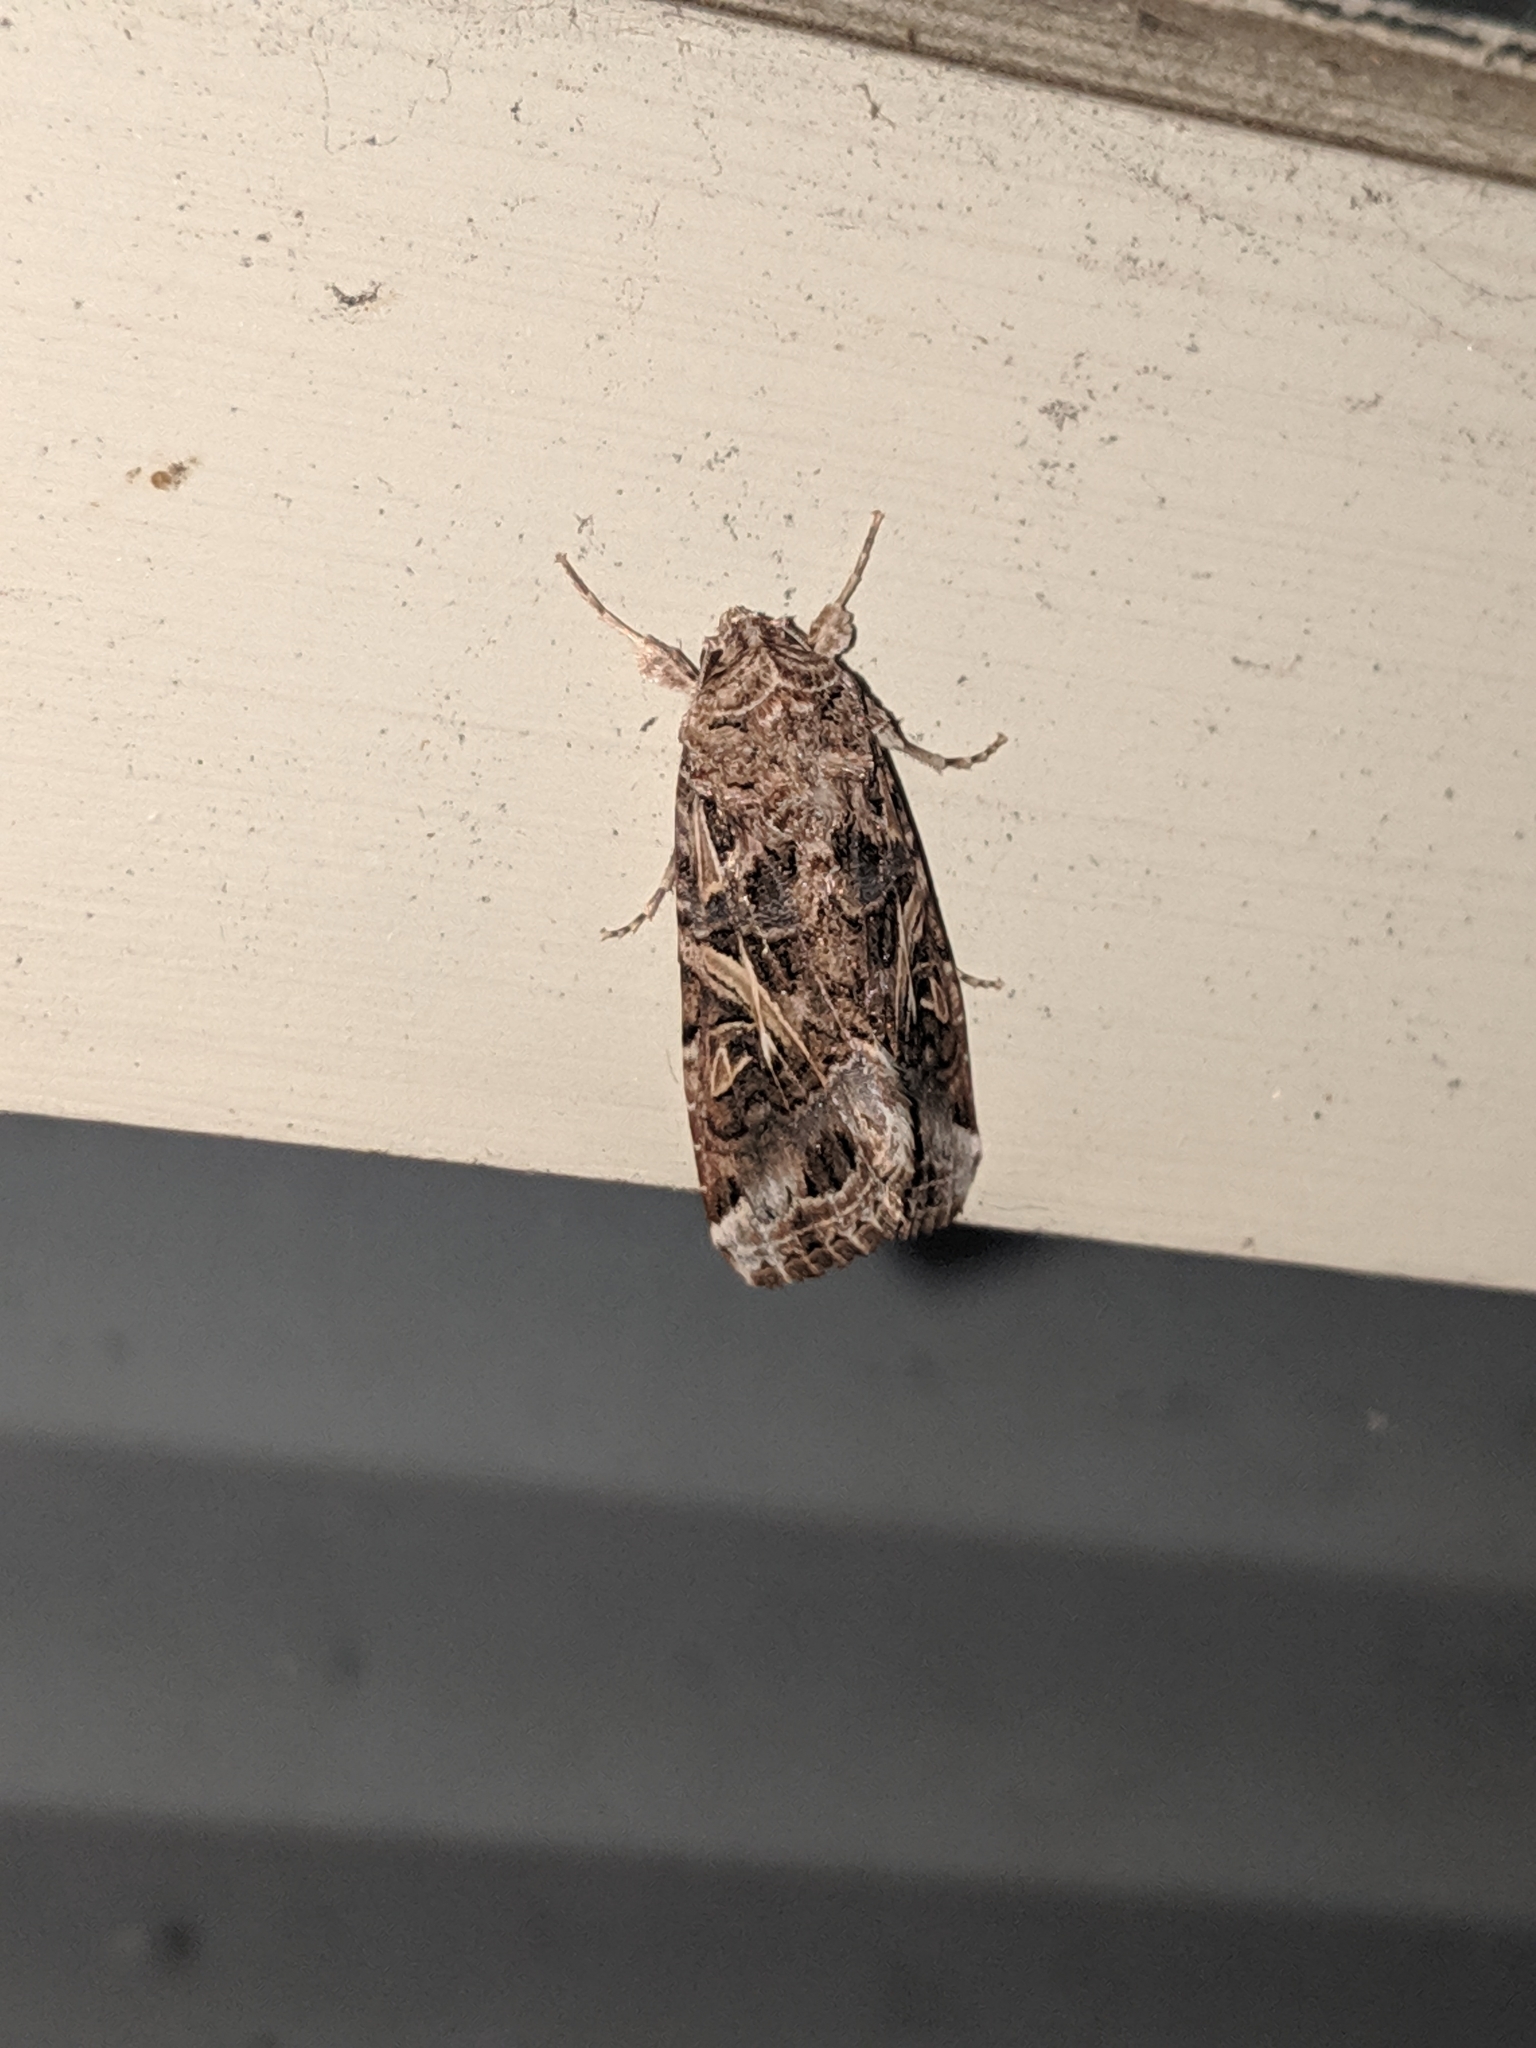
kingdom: Animalia
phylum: Arthropoda
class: Insecta
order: Lepidoptera
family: Noctuidae
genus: Spodoptera
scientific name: Spodoptera ornithogalli
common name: Yellow-striped armyworm
